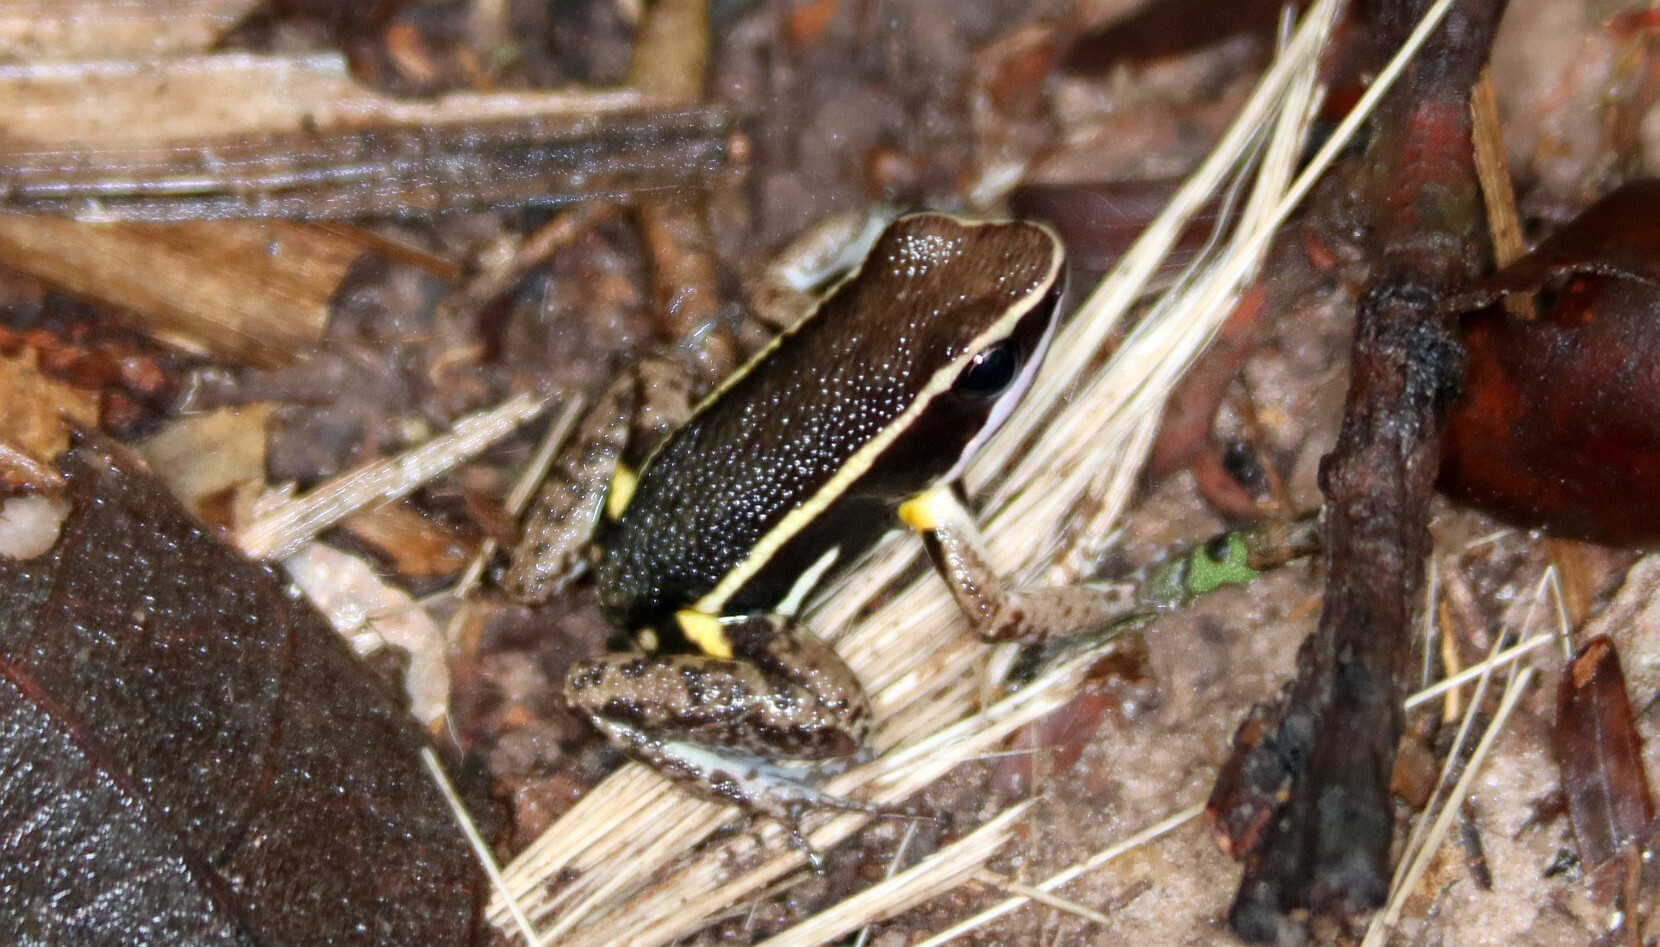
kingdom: Animalia
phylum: Chordata
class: Amphibia
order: Anura
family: Aromobatidae
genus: Allobates
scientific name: Allobates femoralis
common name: Brilliant-thighed poison frog
